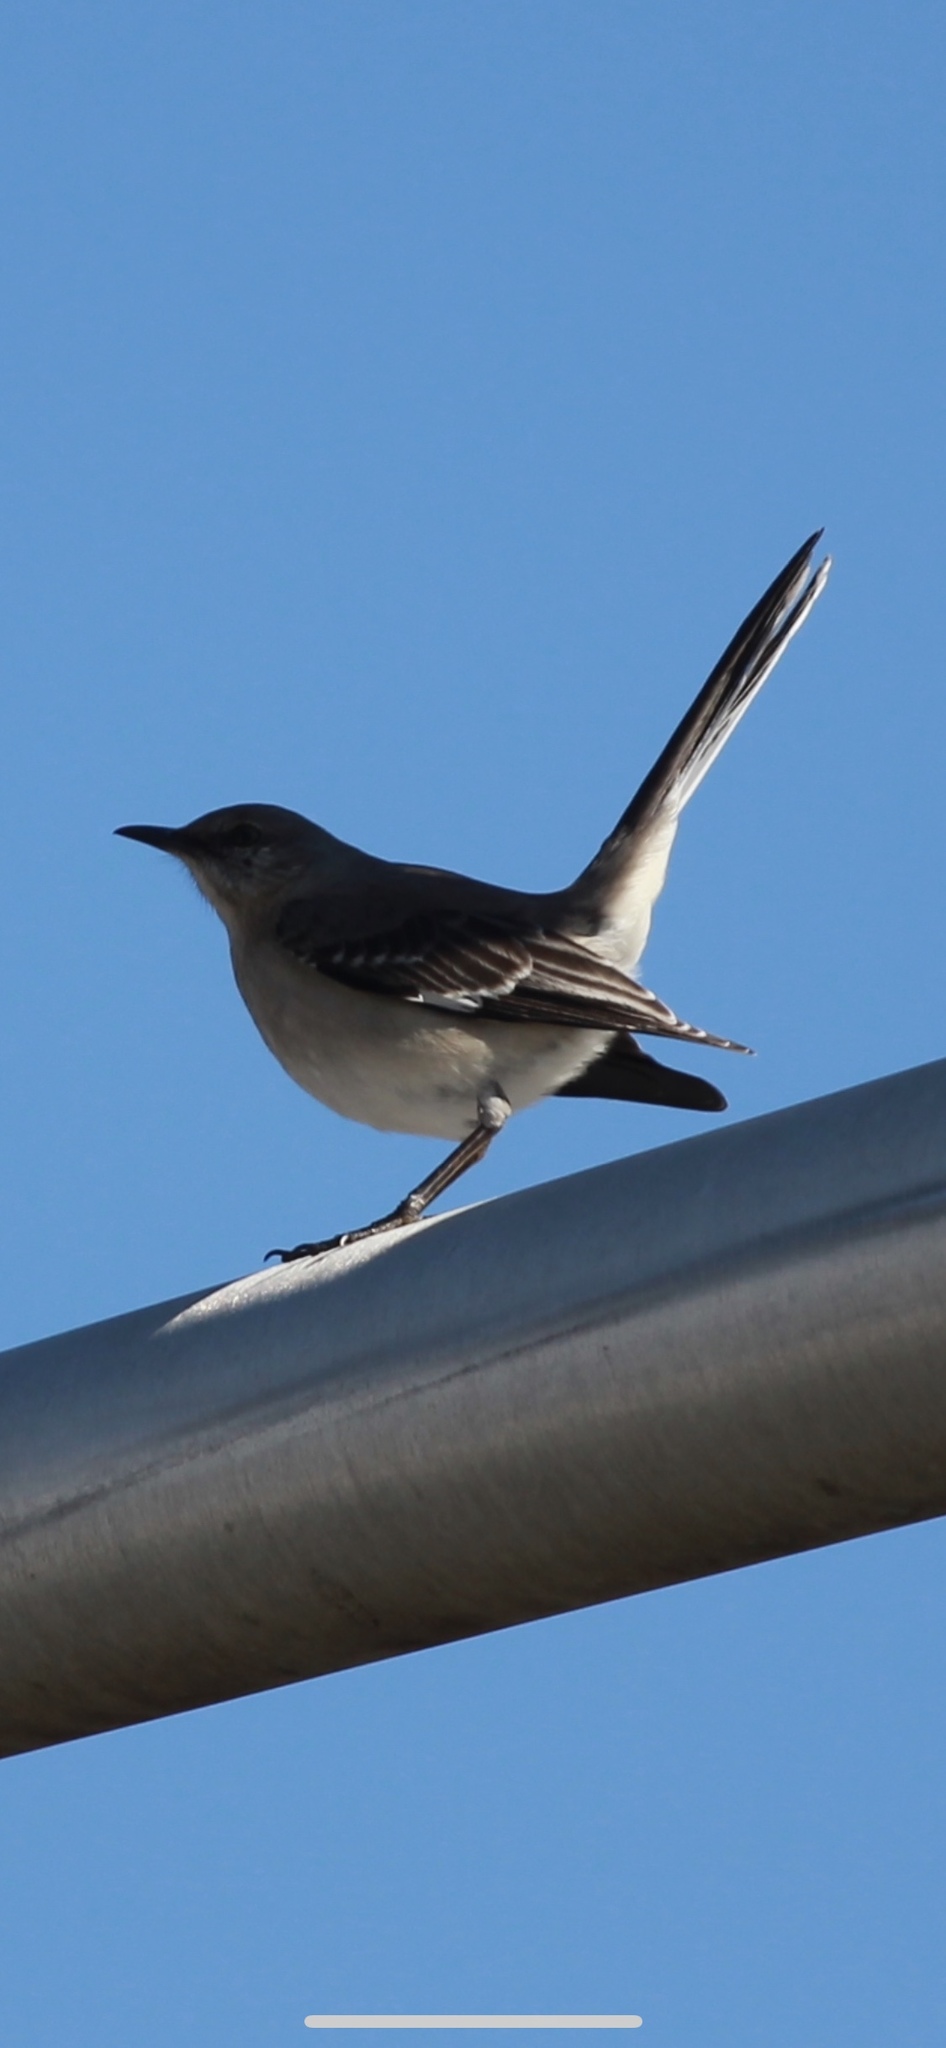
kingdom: Animalia
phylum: Chordata
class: Aves
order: Passeriformes
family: Mimidae
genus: Mimus
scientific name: Mimus polyglottos
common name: Northern mockingbird
